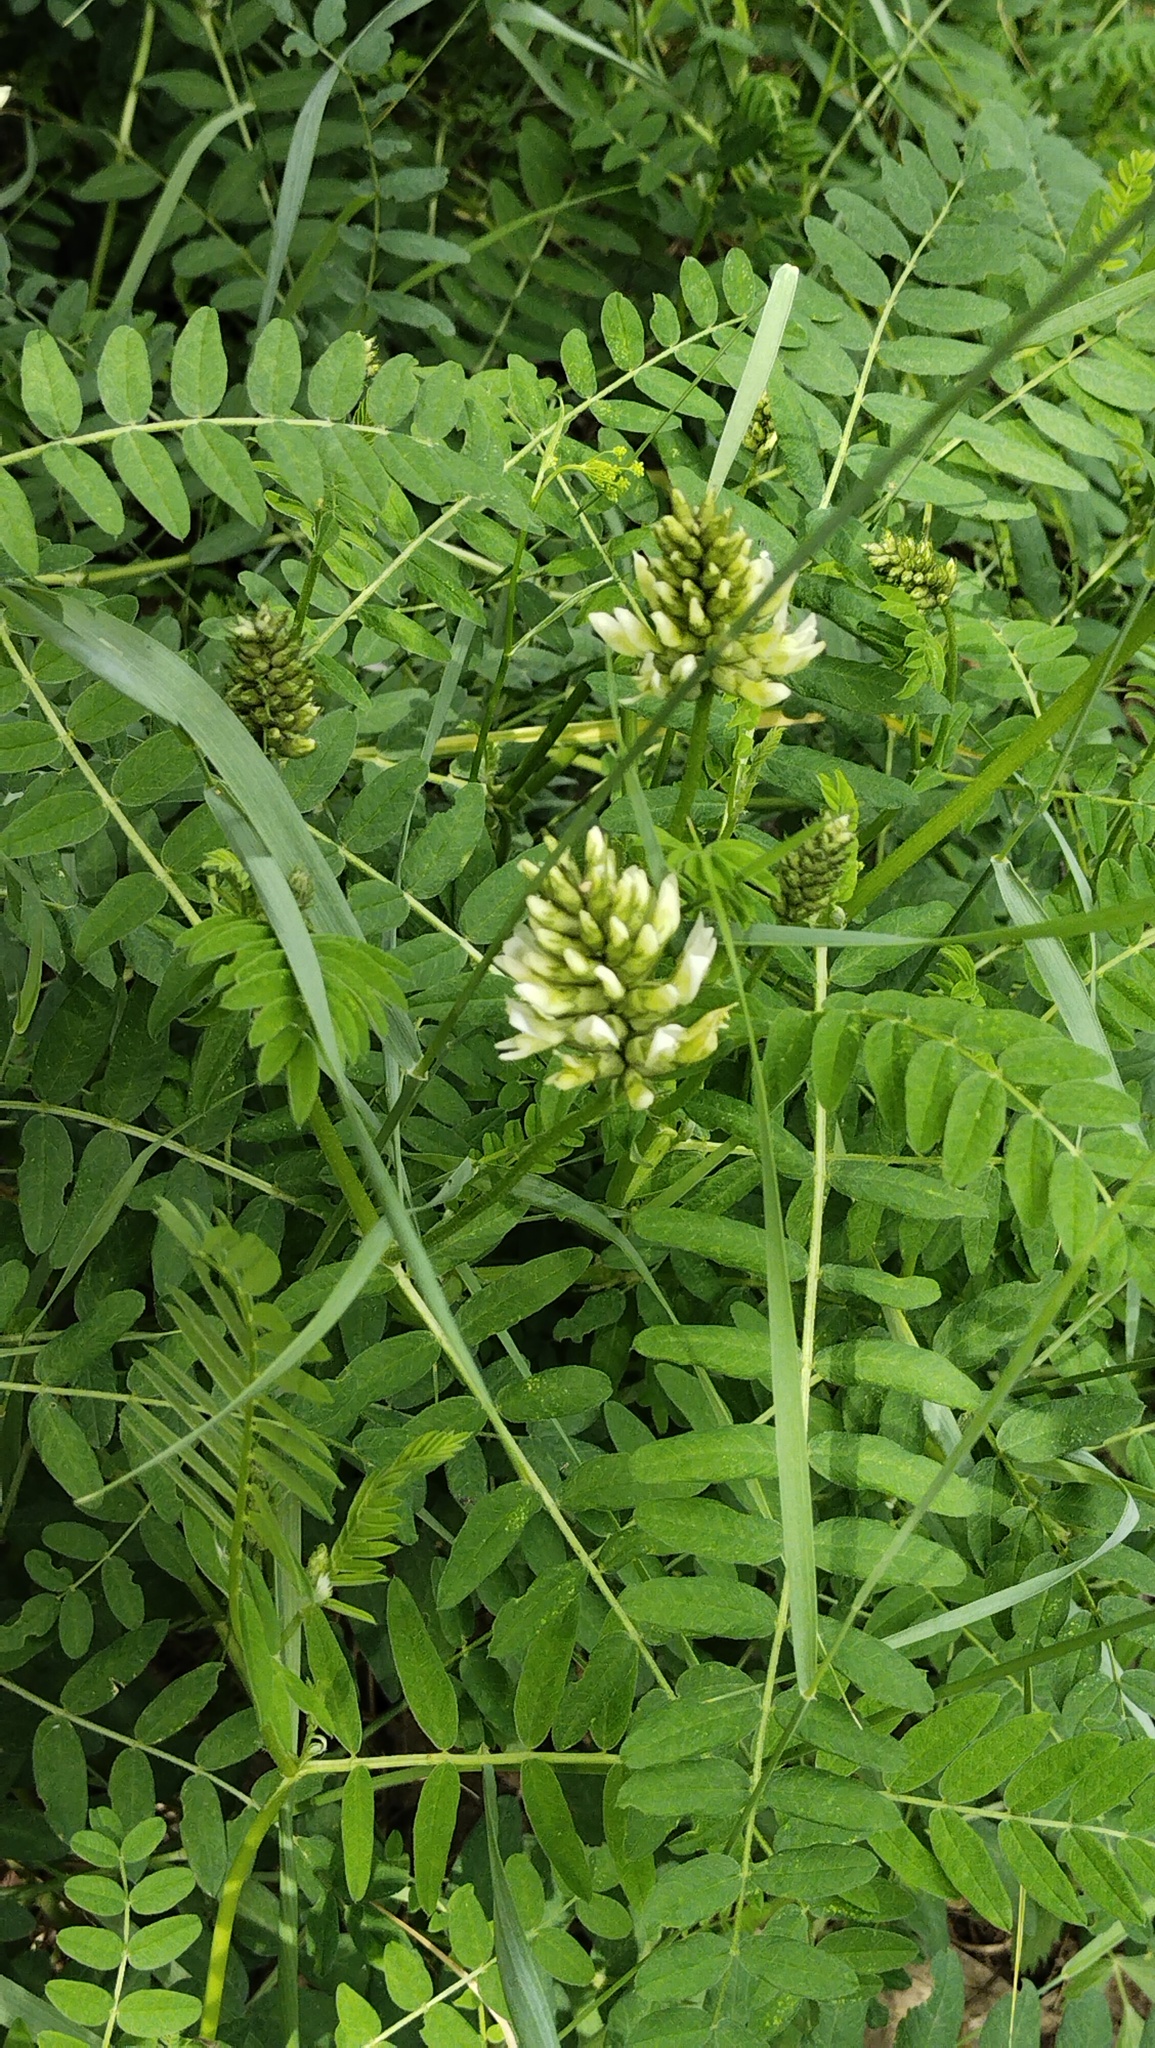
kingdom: Plantae
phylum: Tracheophyta
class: Magnoliopsida
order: Fabales
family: Fabaceae
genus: Astragalus
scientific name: Astragalus cicer
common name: Chick-pea milk-vetch
